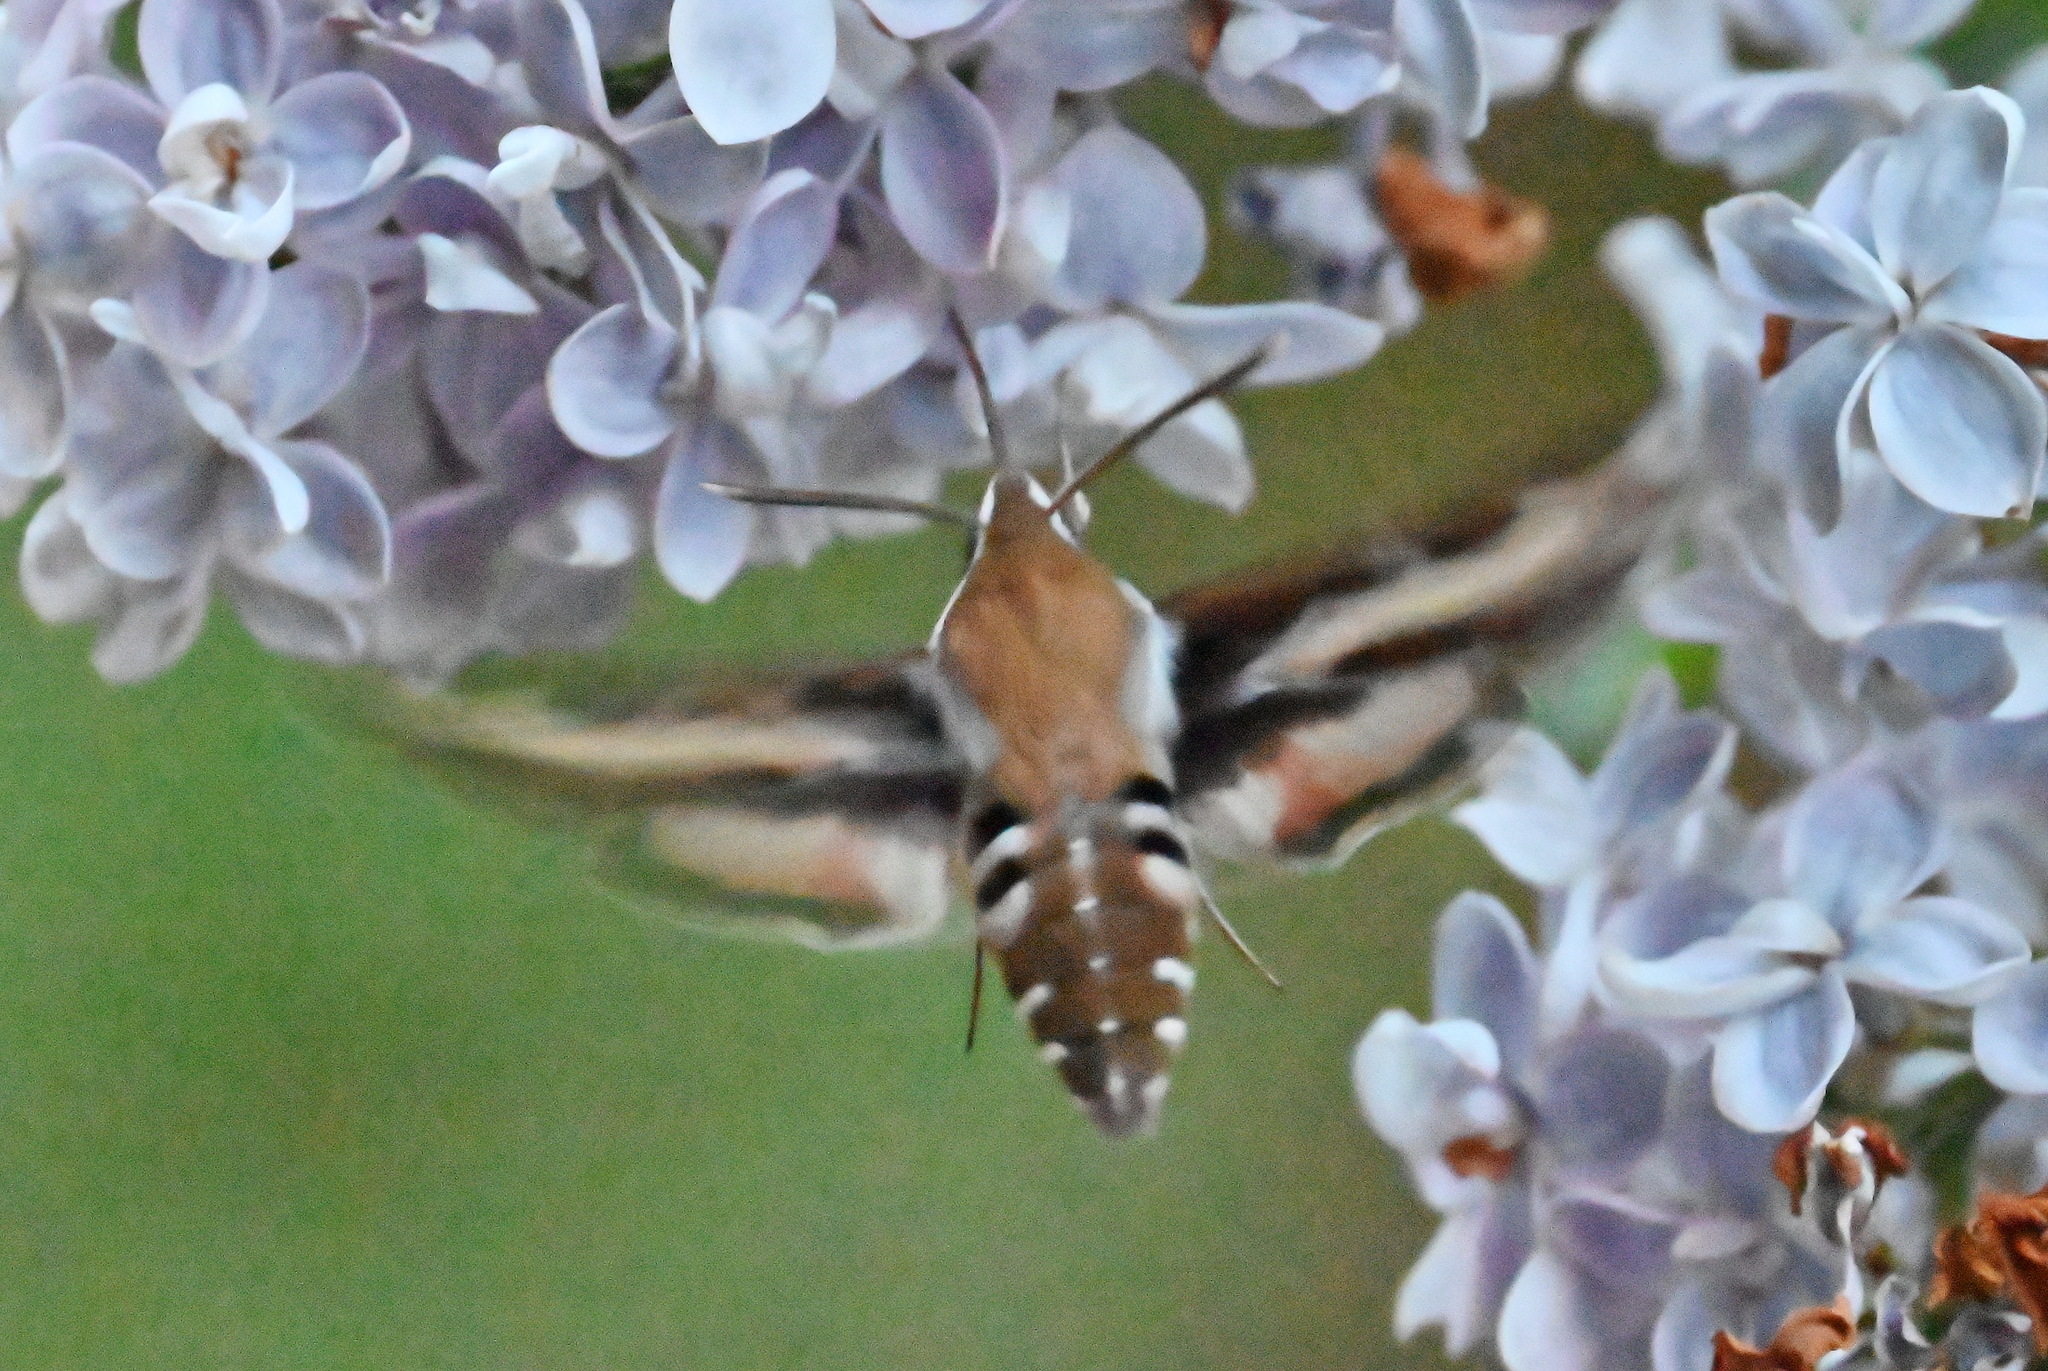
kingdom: Animalia
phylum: Arthropoda
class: Insecta
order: Lepidoptera
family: Sphingidae
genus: Hyles
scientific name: Hyles gallii
